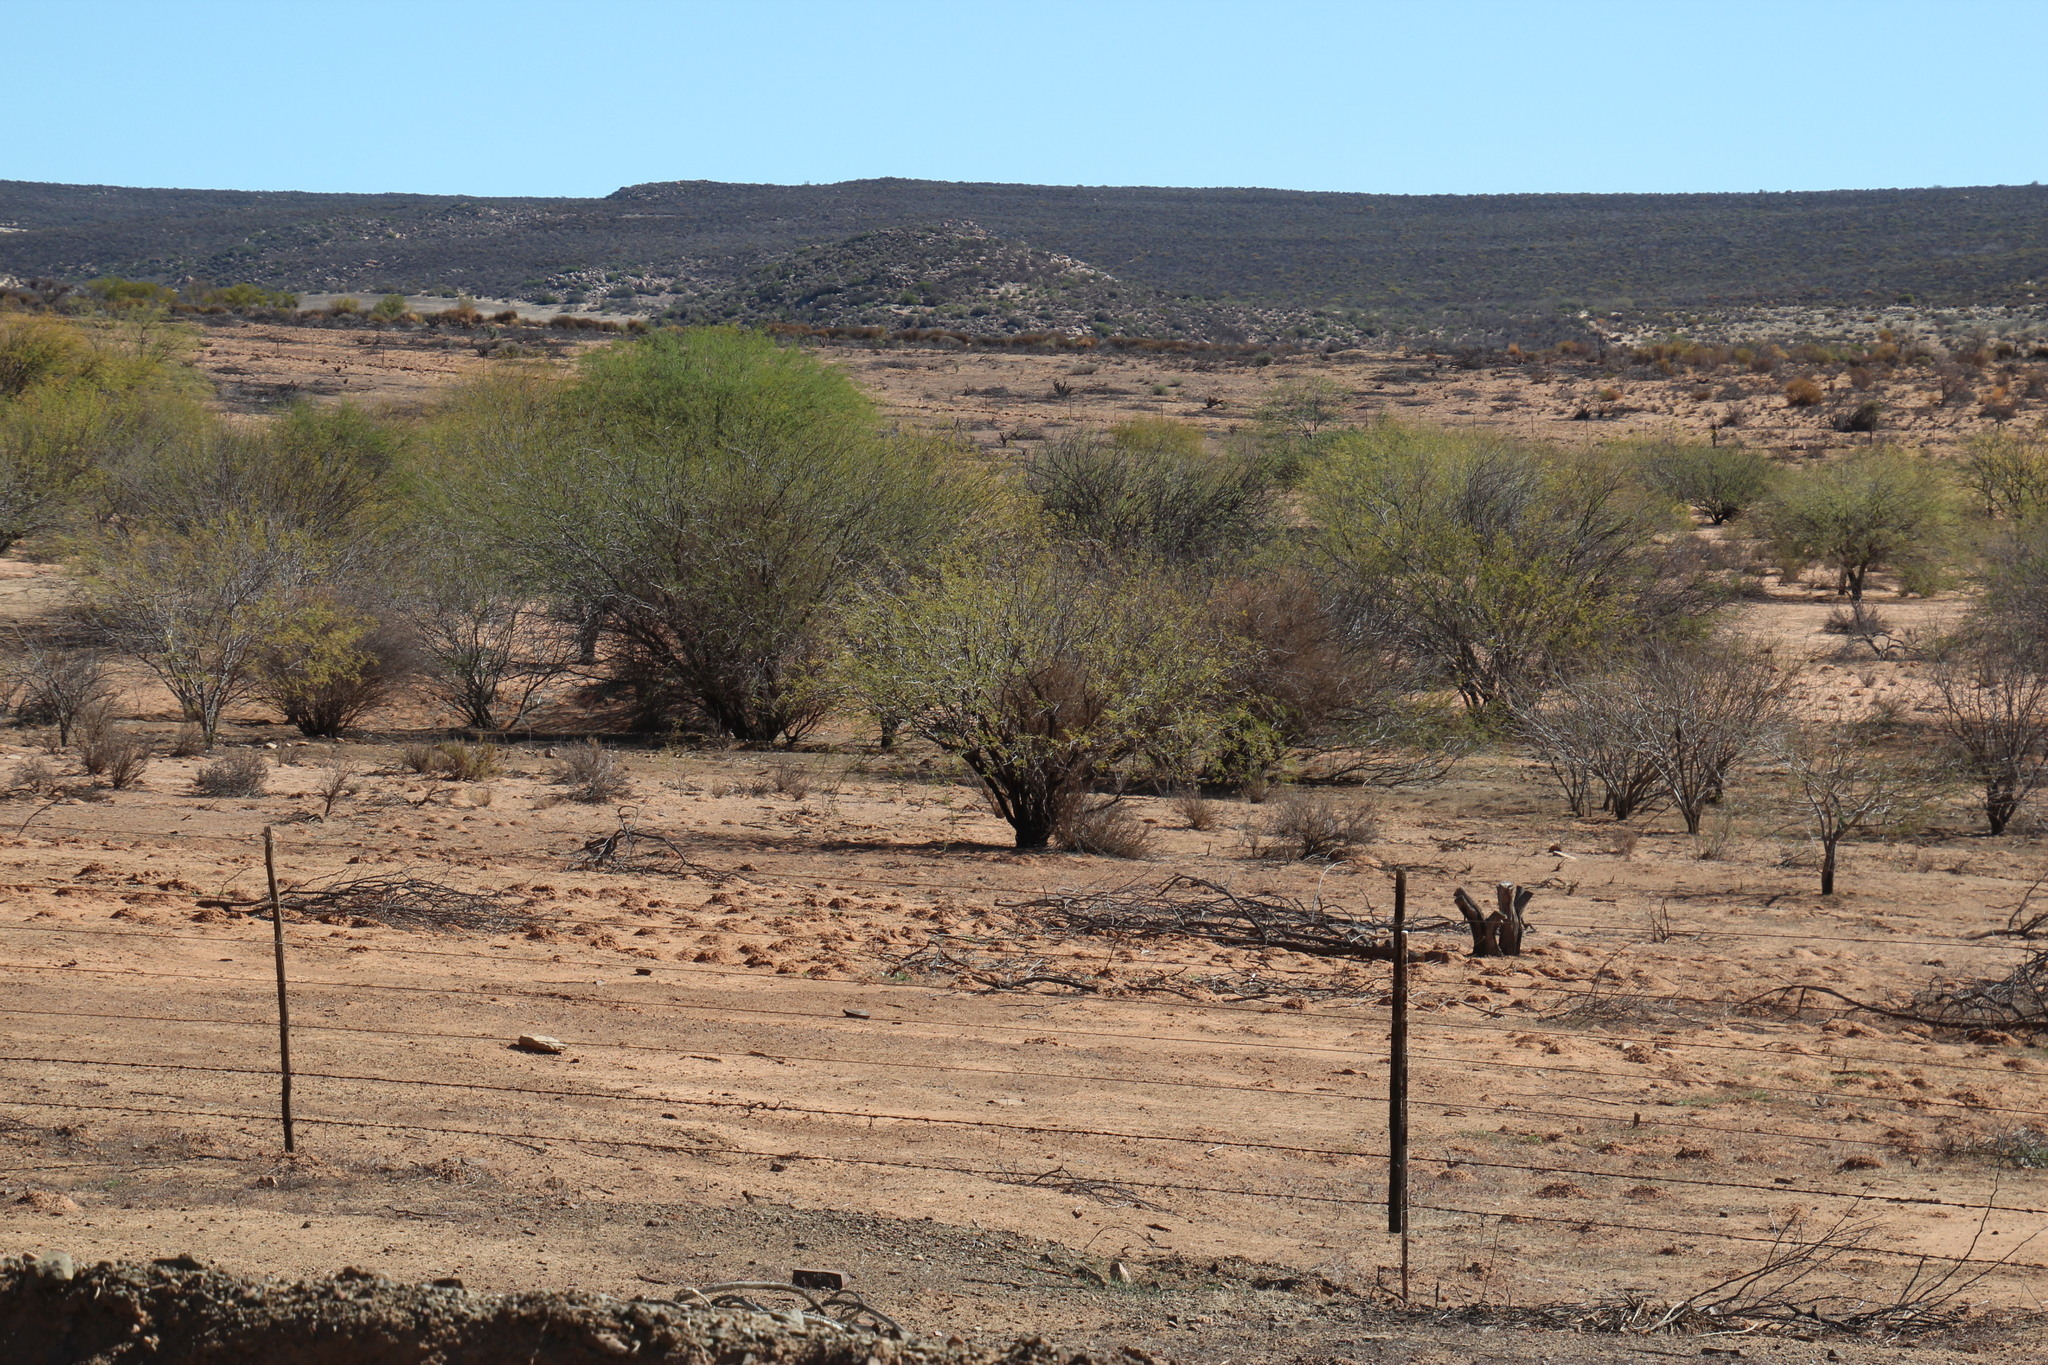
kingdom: Plantae
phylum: Tracheophyta
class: Magnoliopsida
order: Fabales
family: Fabaceae
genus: Prosopis
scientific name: Prosopis pubescens
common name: Screw-bean
